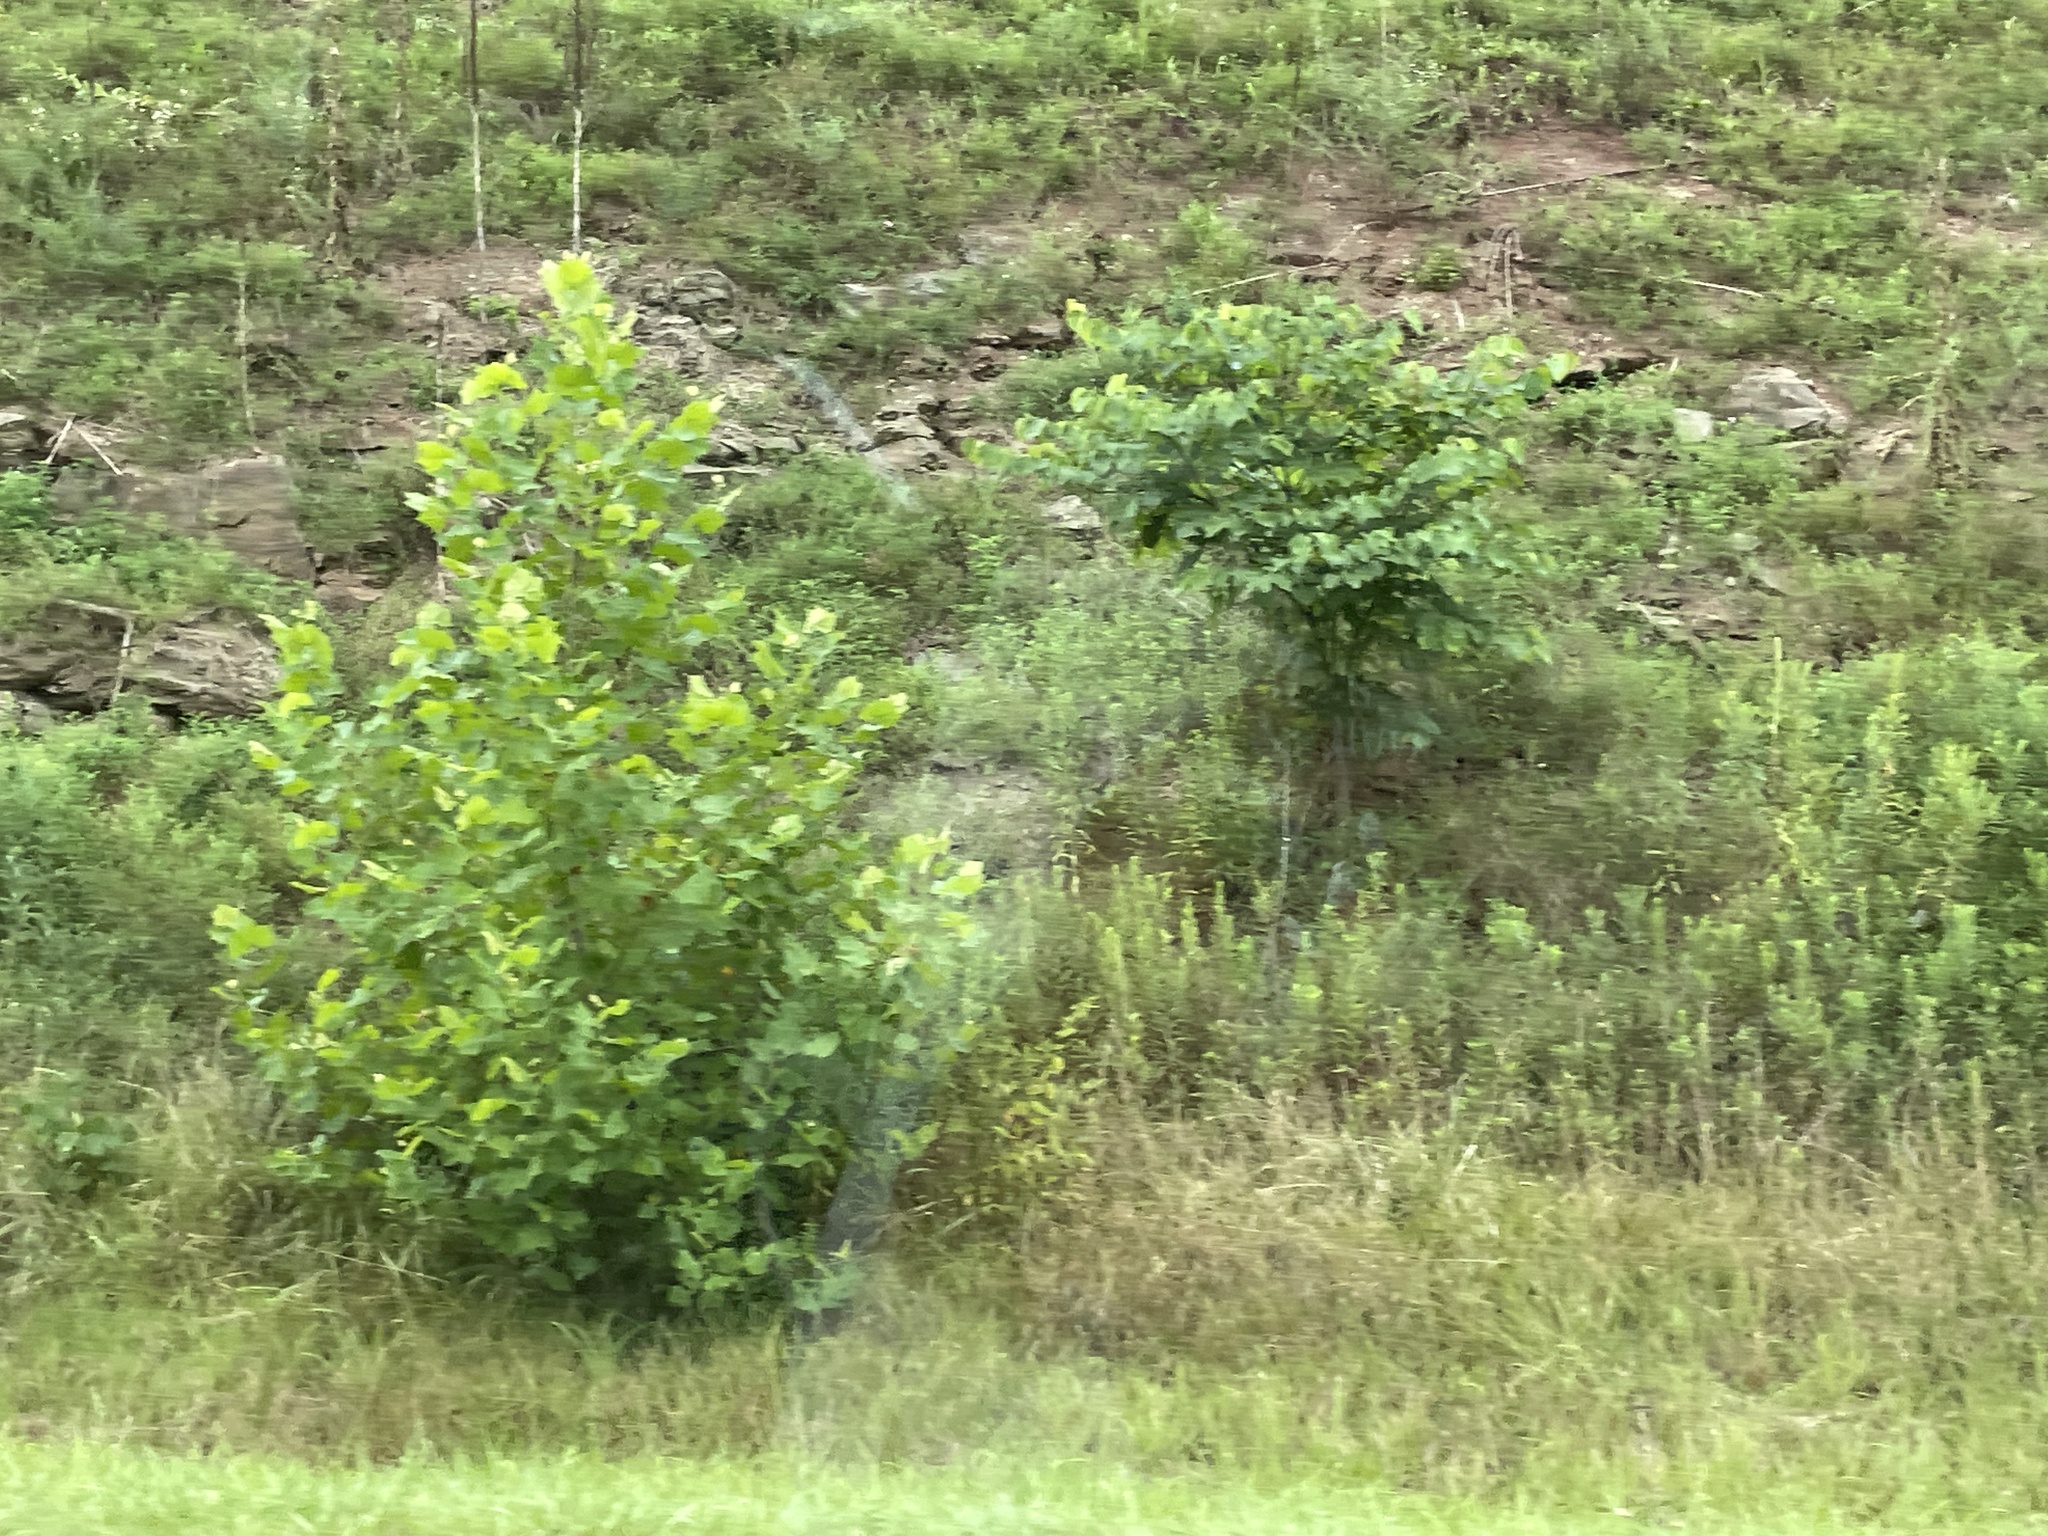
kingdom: Plantae
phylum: Tracheophyta
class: Magnoliopsida
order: Proteales
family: Platanaceae
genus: Platanus
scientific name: Platanus occidentalis
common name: American sycamore
